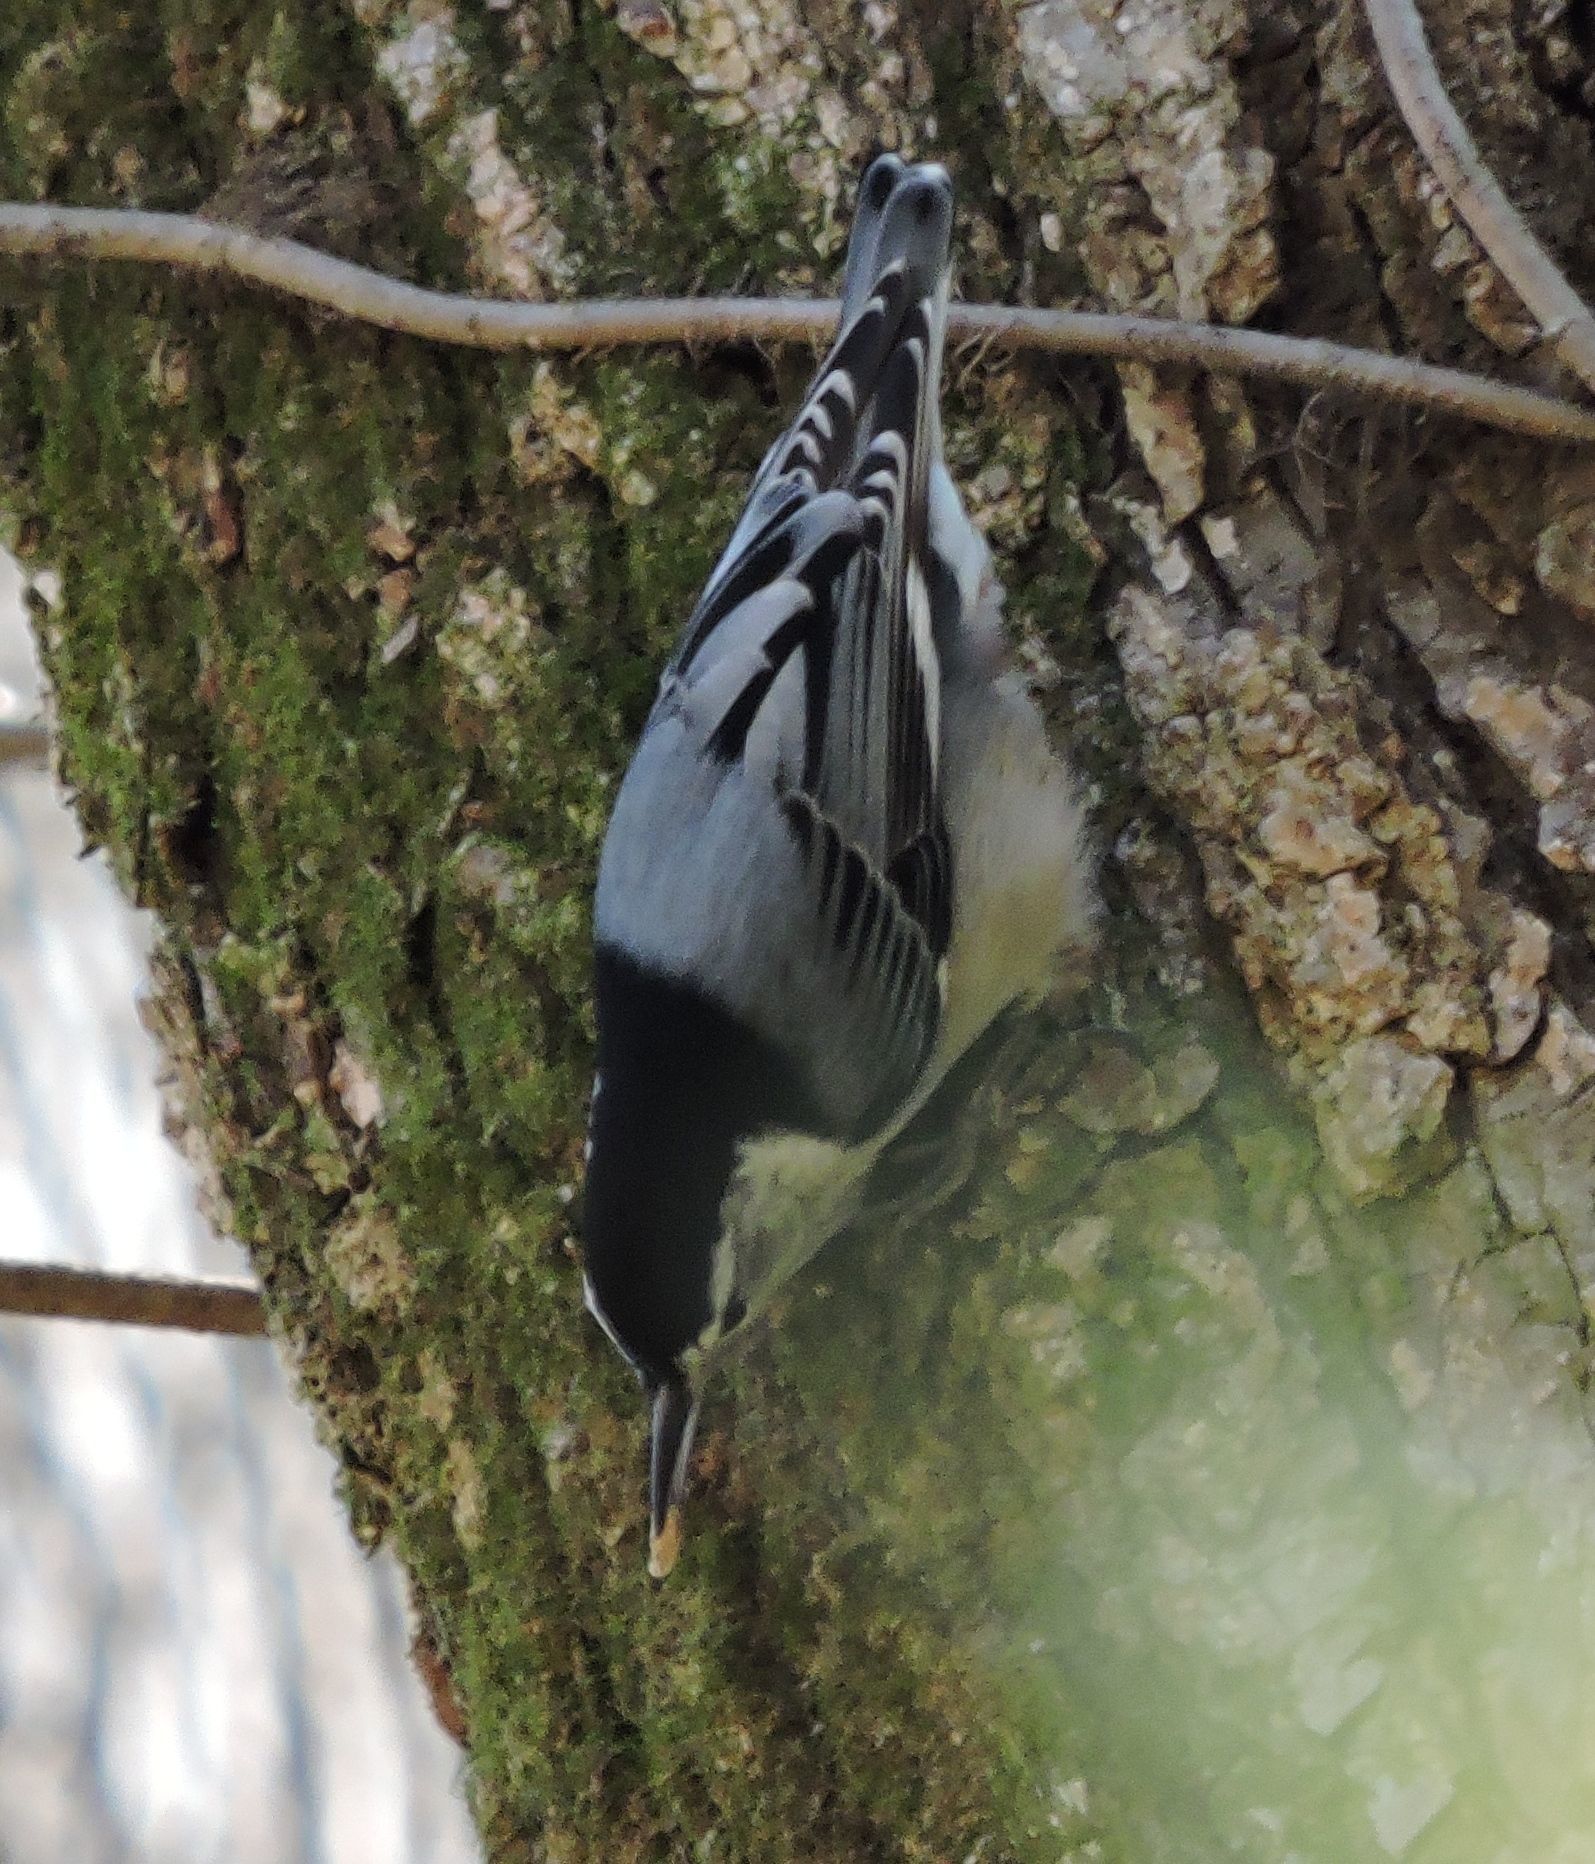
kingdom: Animalia
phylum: Chordata
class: Aves
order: Passeriformes
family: Sittidae
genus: Sitta
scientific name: Sitta carolinensis
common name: White-breasted nuthatch
